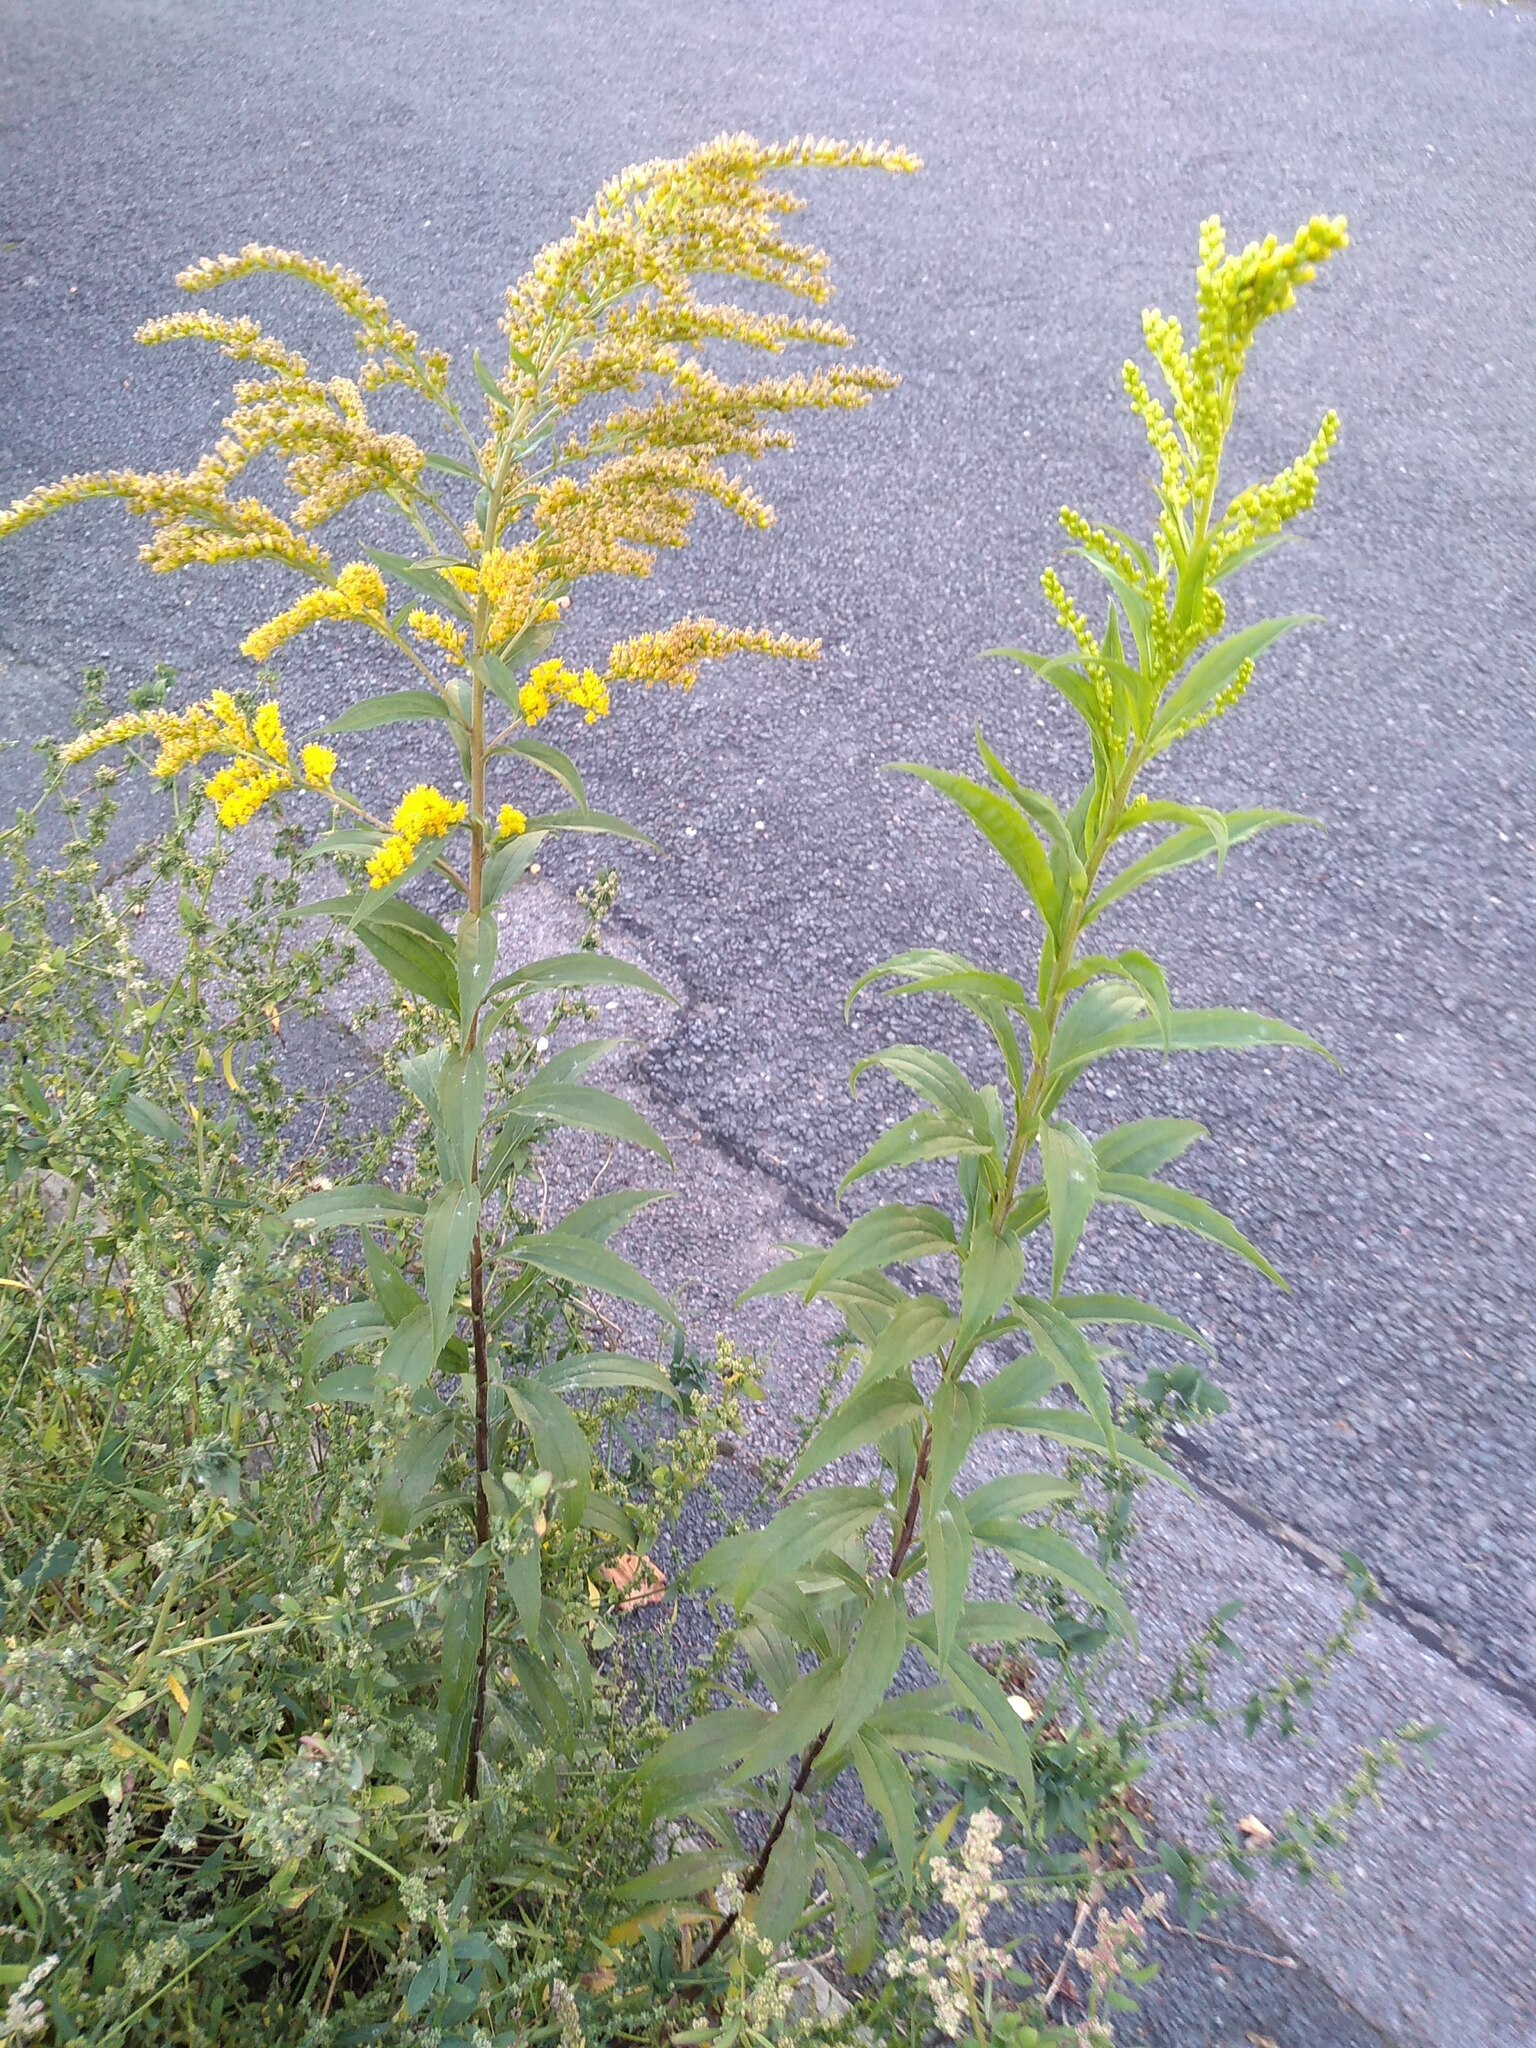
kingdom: Plantae
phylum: Tracheophyta
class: Magnoliopsida
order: Asterales
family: Asteraceae
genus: Solidago
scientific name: Solidago canadensis
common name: Canada goldenrod
